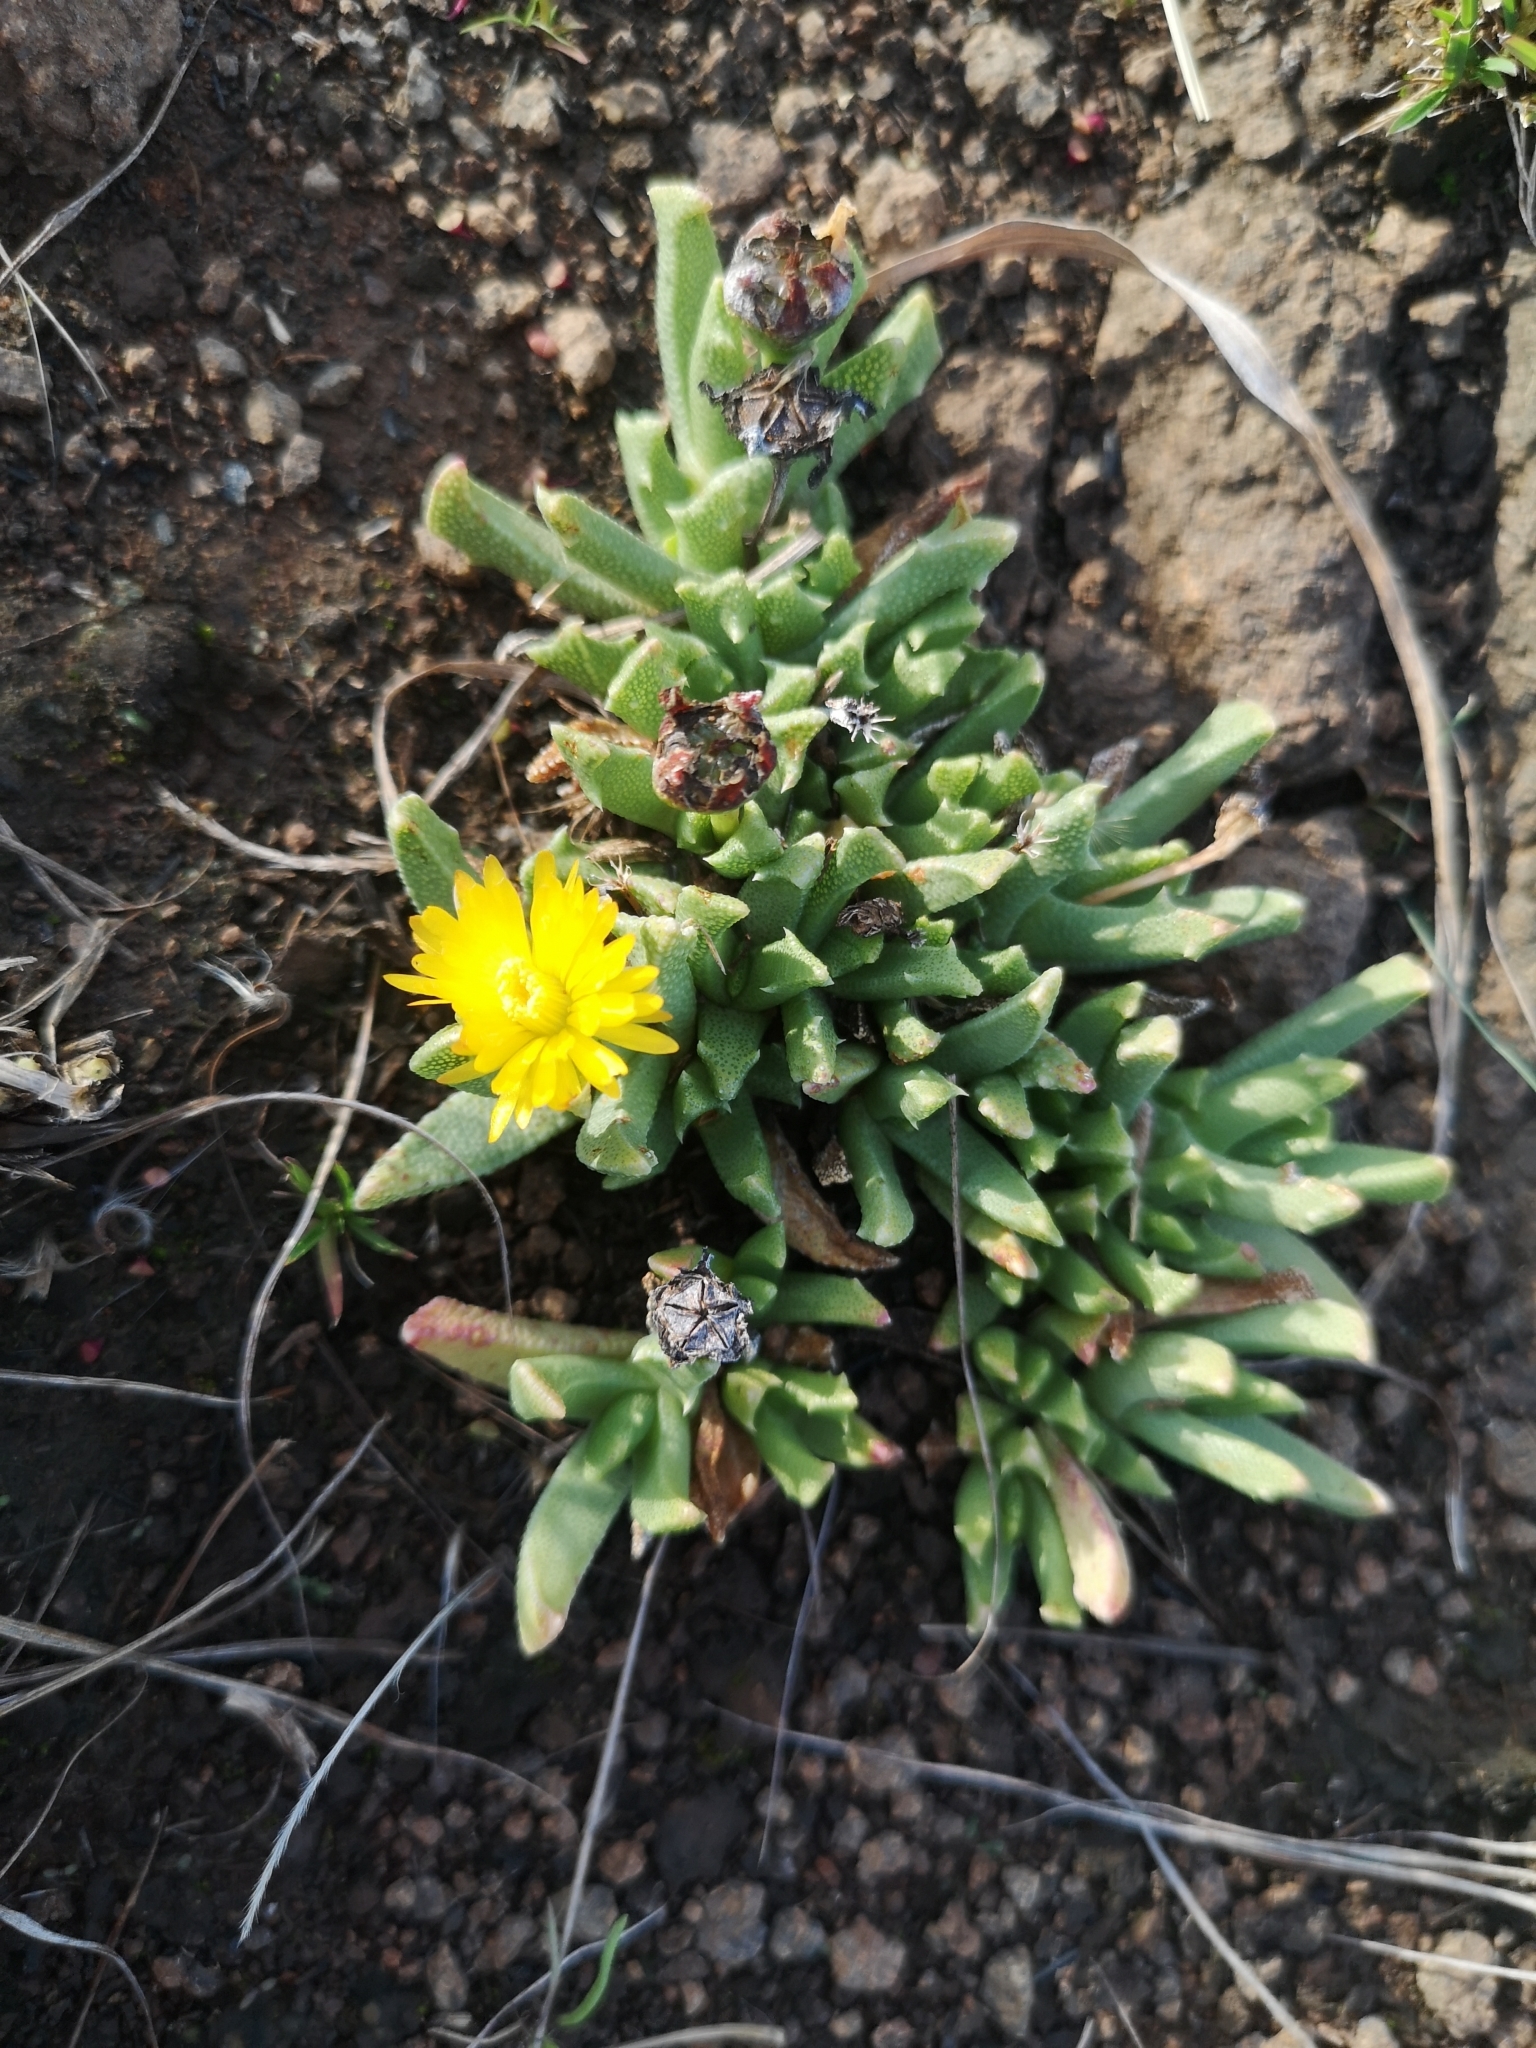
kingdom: Plantae
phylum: Tracheophyta
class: Magnoliopsida
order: Caryophyllales
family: Aizoaceae
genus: Dracophilus
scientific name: Dracophilus Chasmatophyllum musculinum
